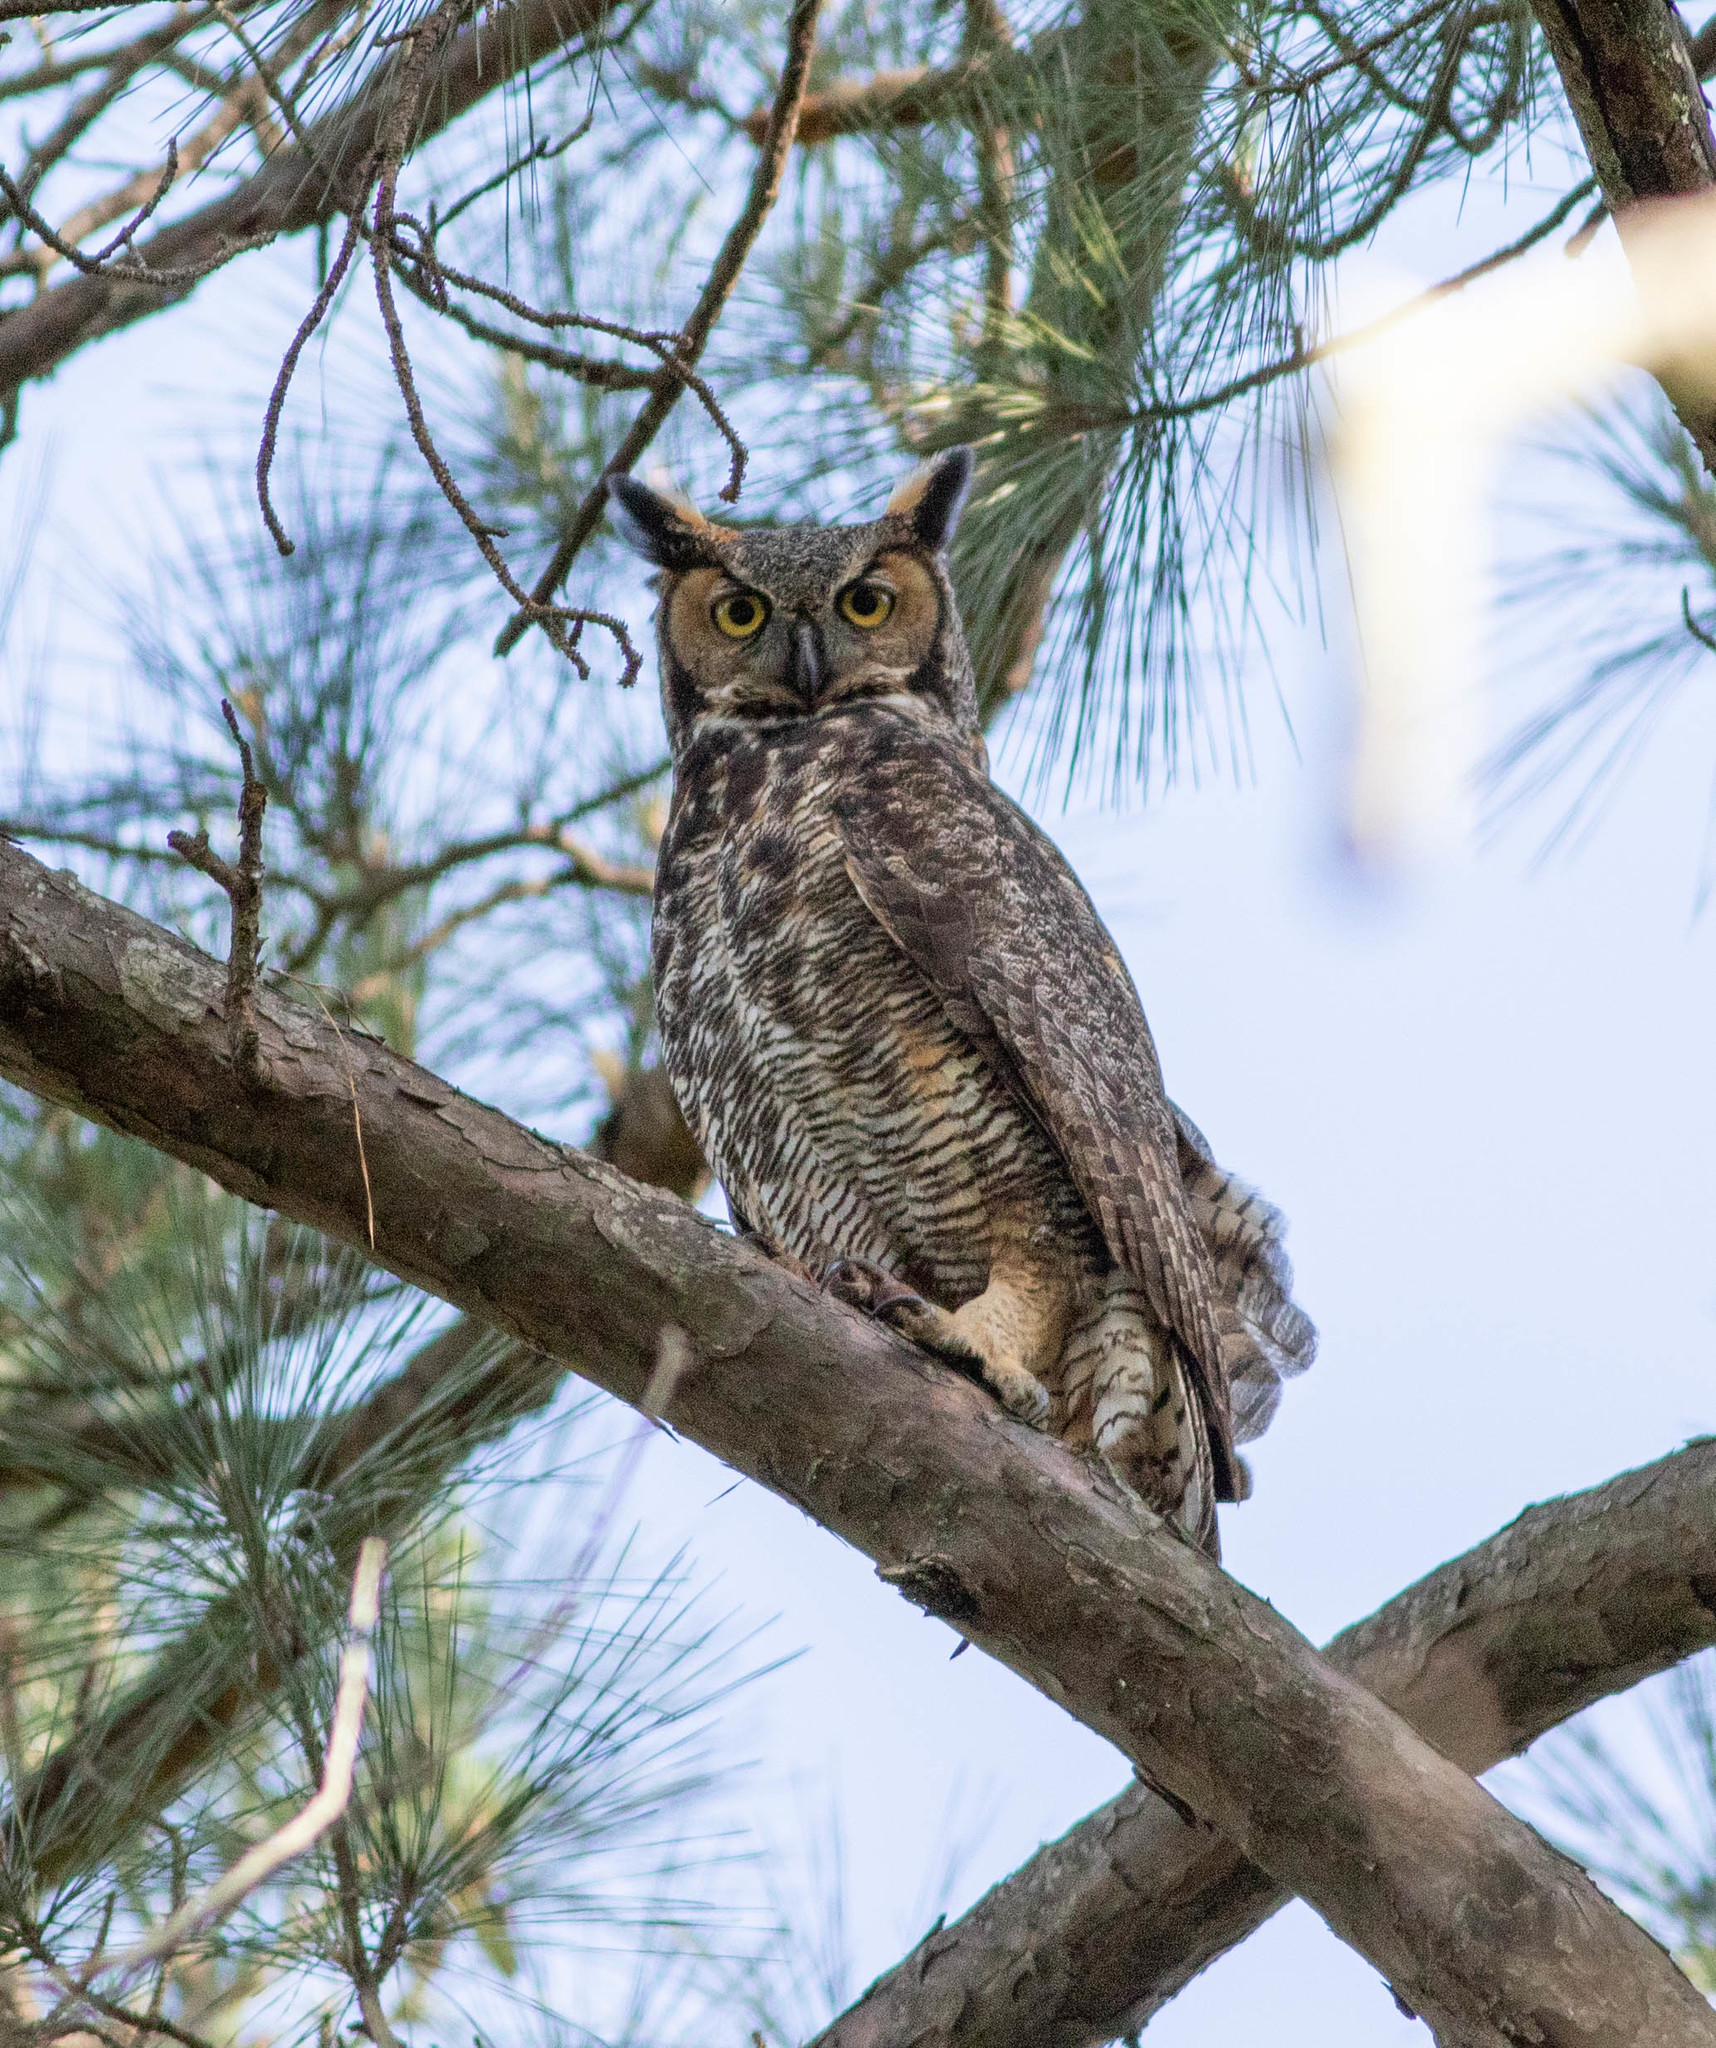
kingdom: Animalia
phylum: Chordata
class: Aves
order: Strigiformes
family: Strigidae
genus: Bubo
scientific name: Bubo virginianus
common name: Great horned owl
